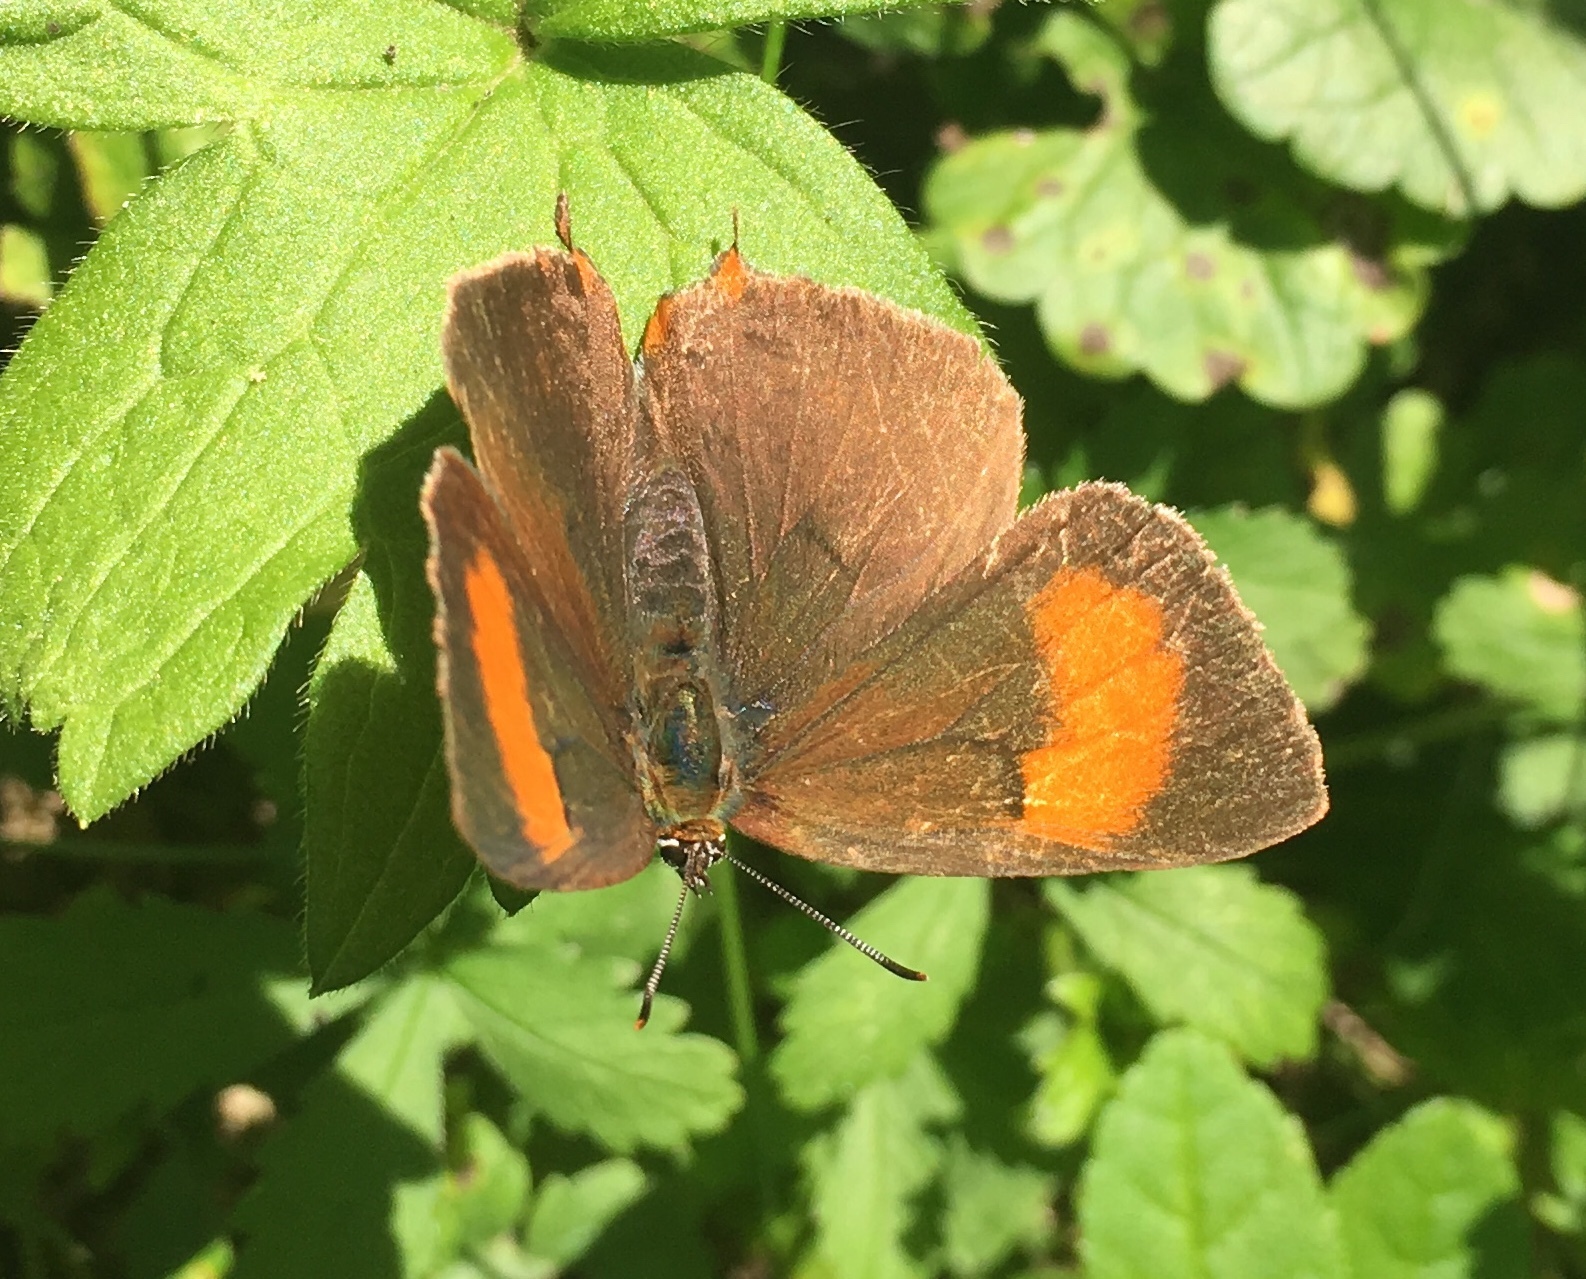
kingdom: Animalia
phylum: Arthropoda
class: Insecta
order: Lepidoptera
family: Lycaenidae
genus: Thecla
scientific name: Thecla betulae
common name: Brown hairstreak
